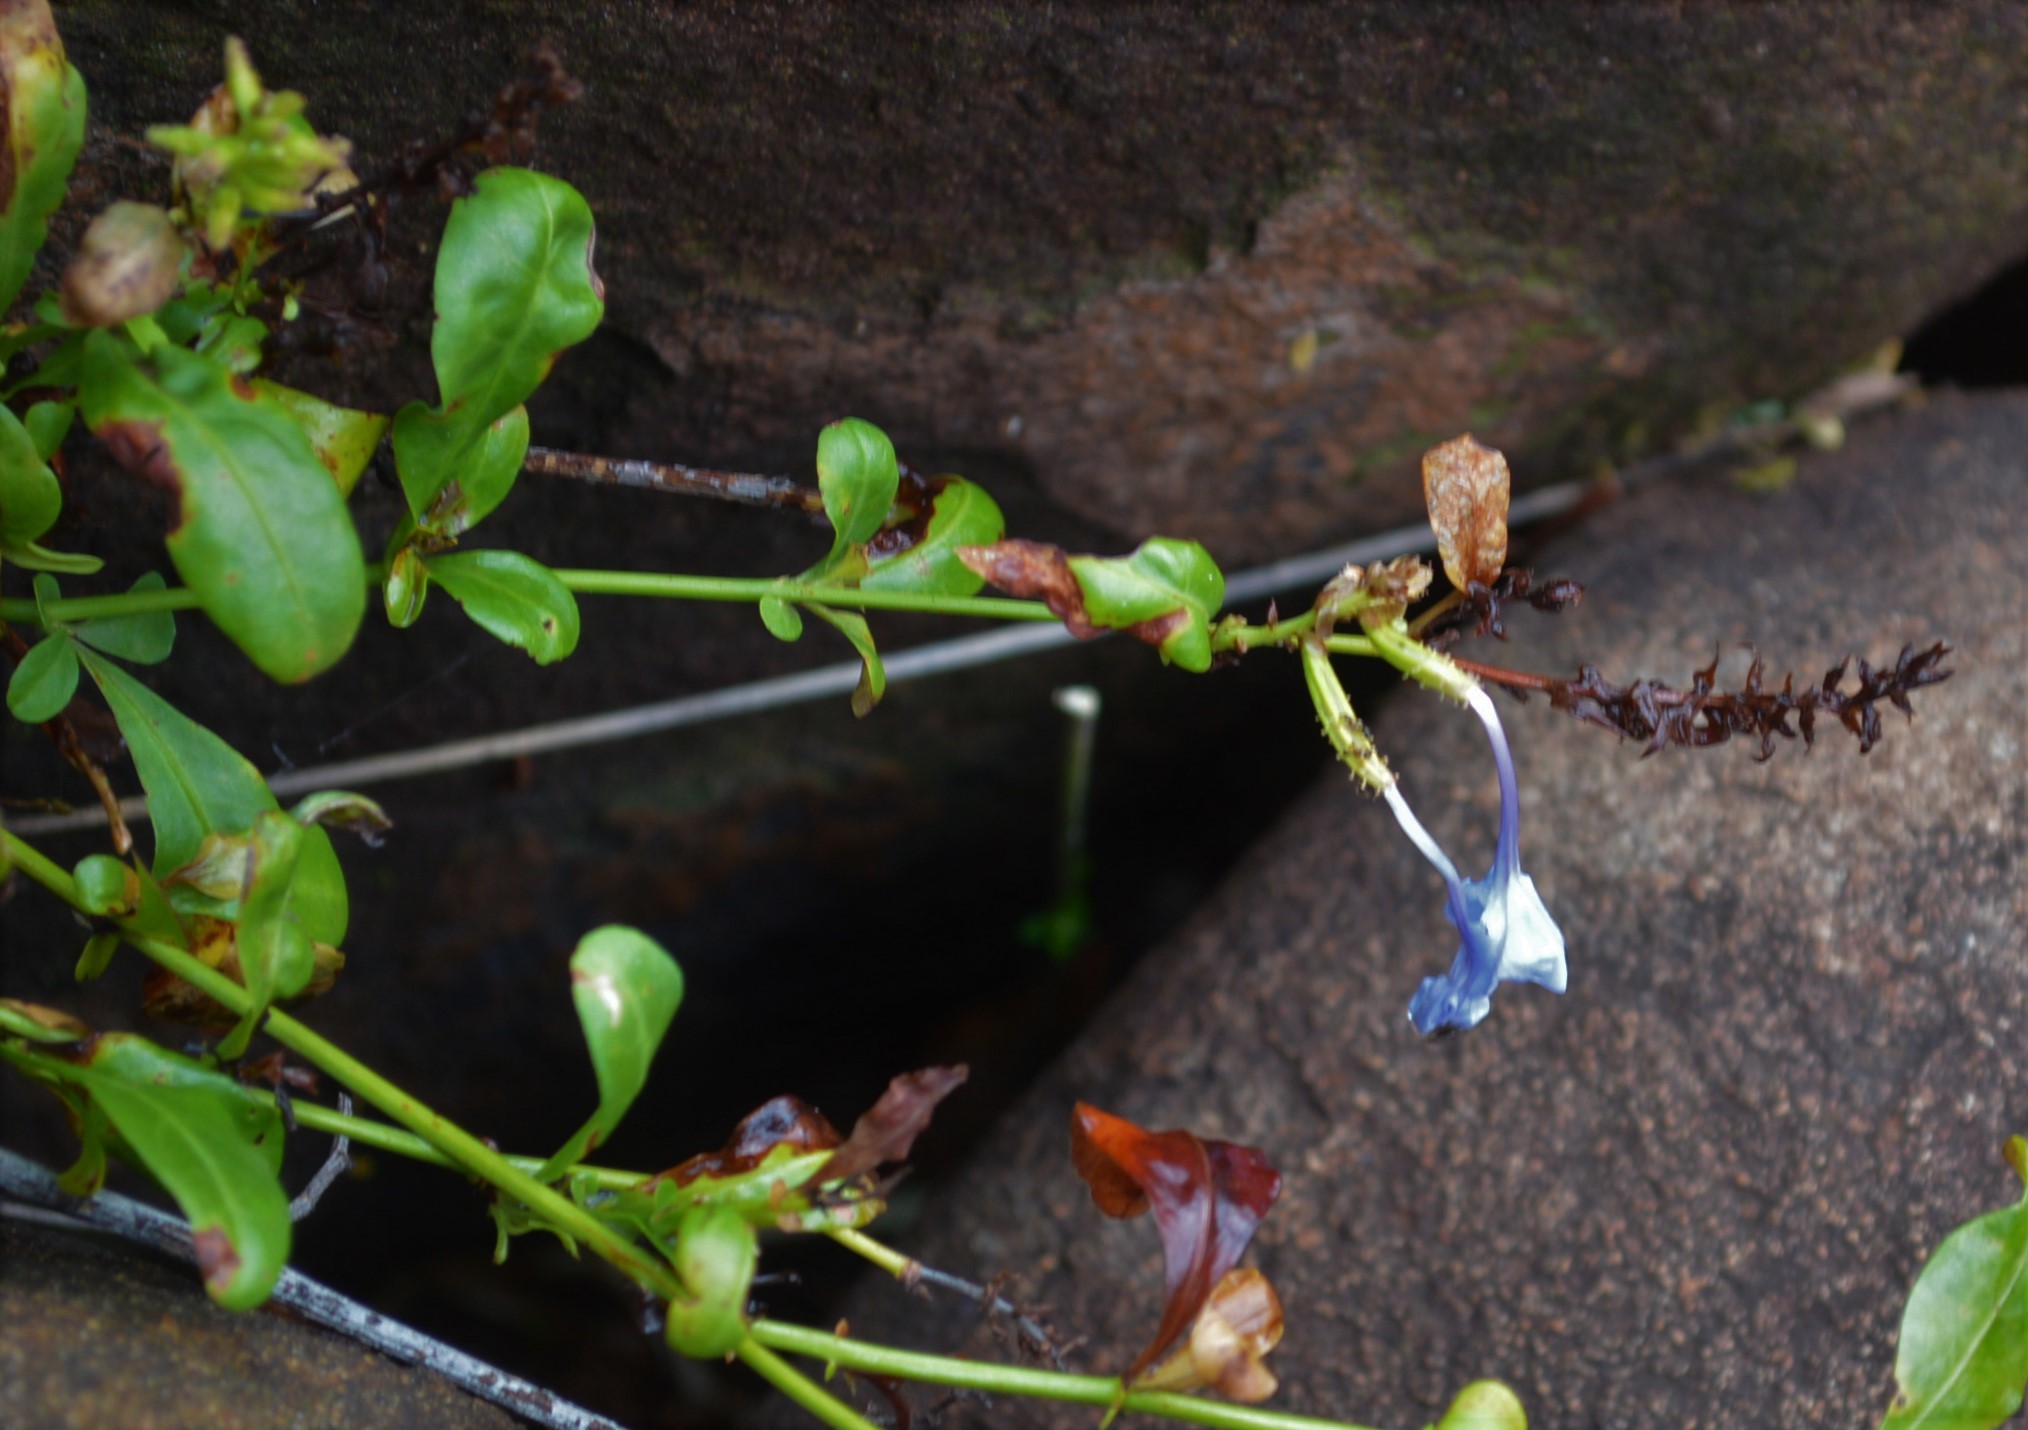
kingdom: Plantae
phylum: Tracheophyta
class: Magnoliopsida
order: Caryophyllales
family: Plumbaginaceae
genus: Plumbago
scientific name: Plumbago auriculata
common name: Cape leadwort
